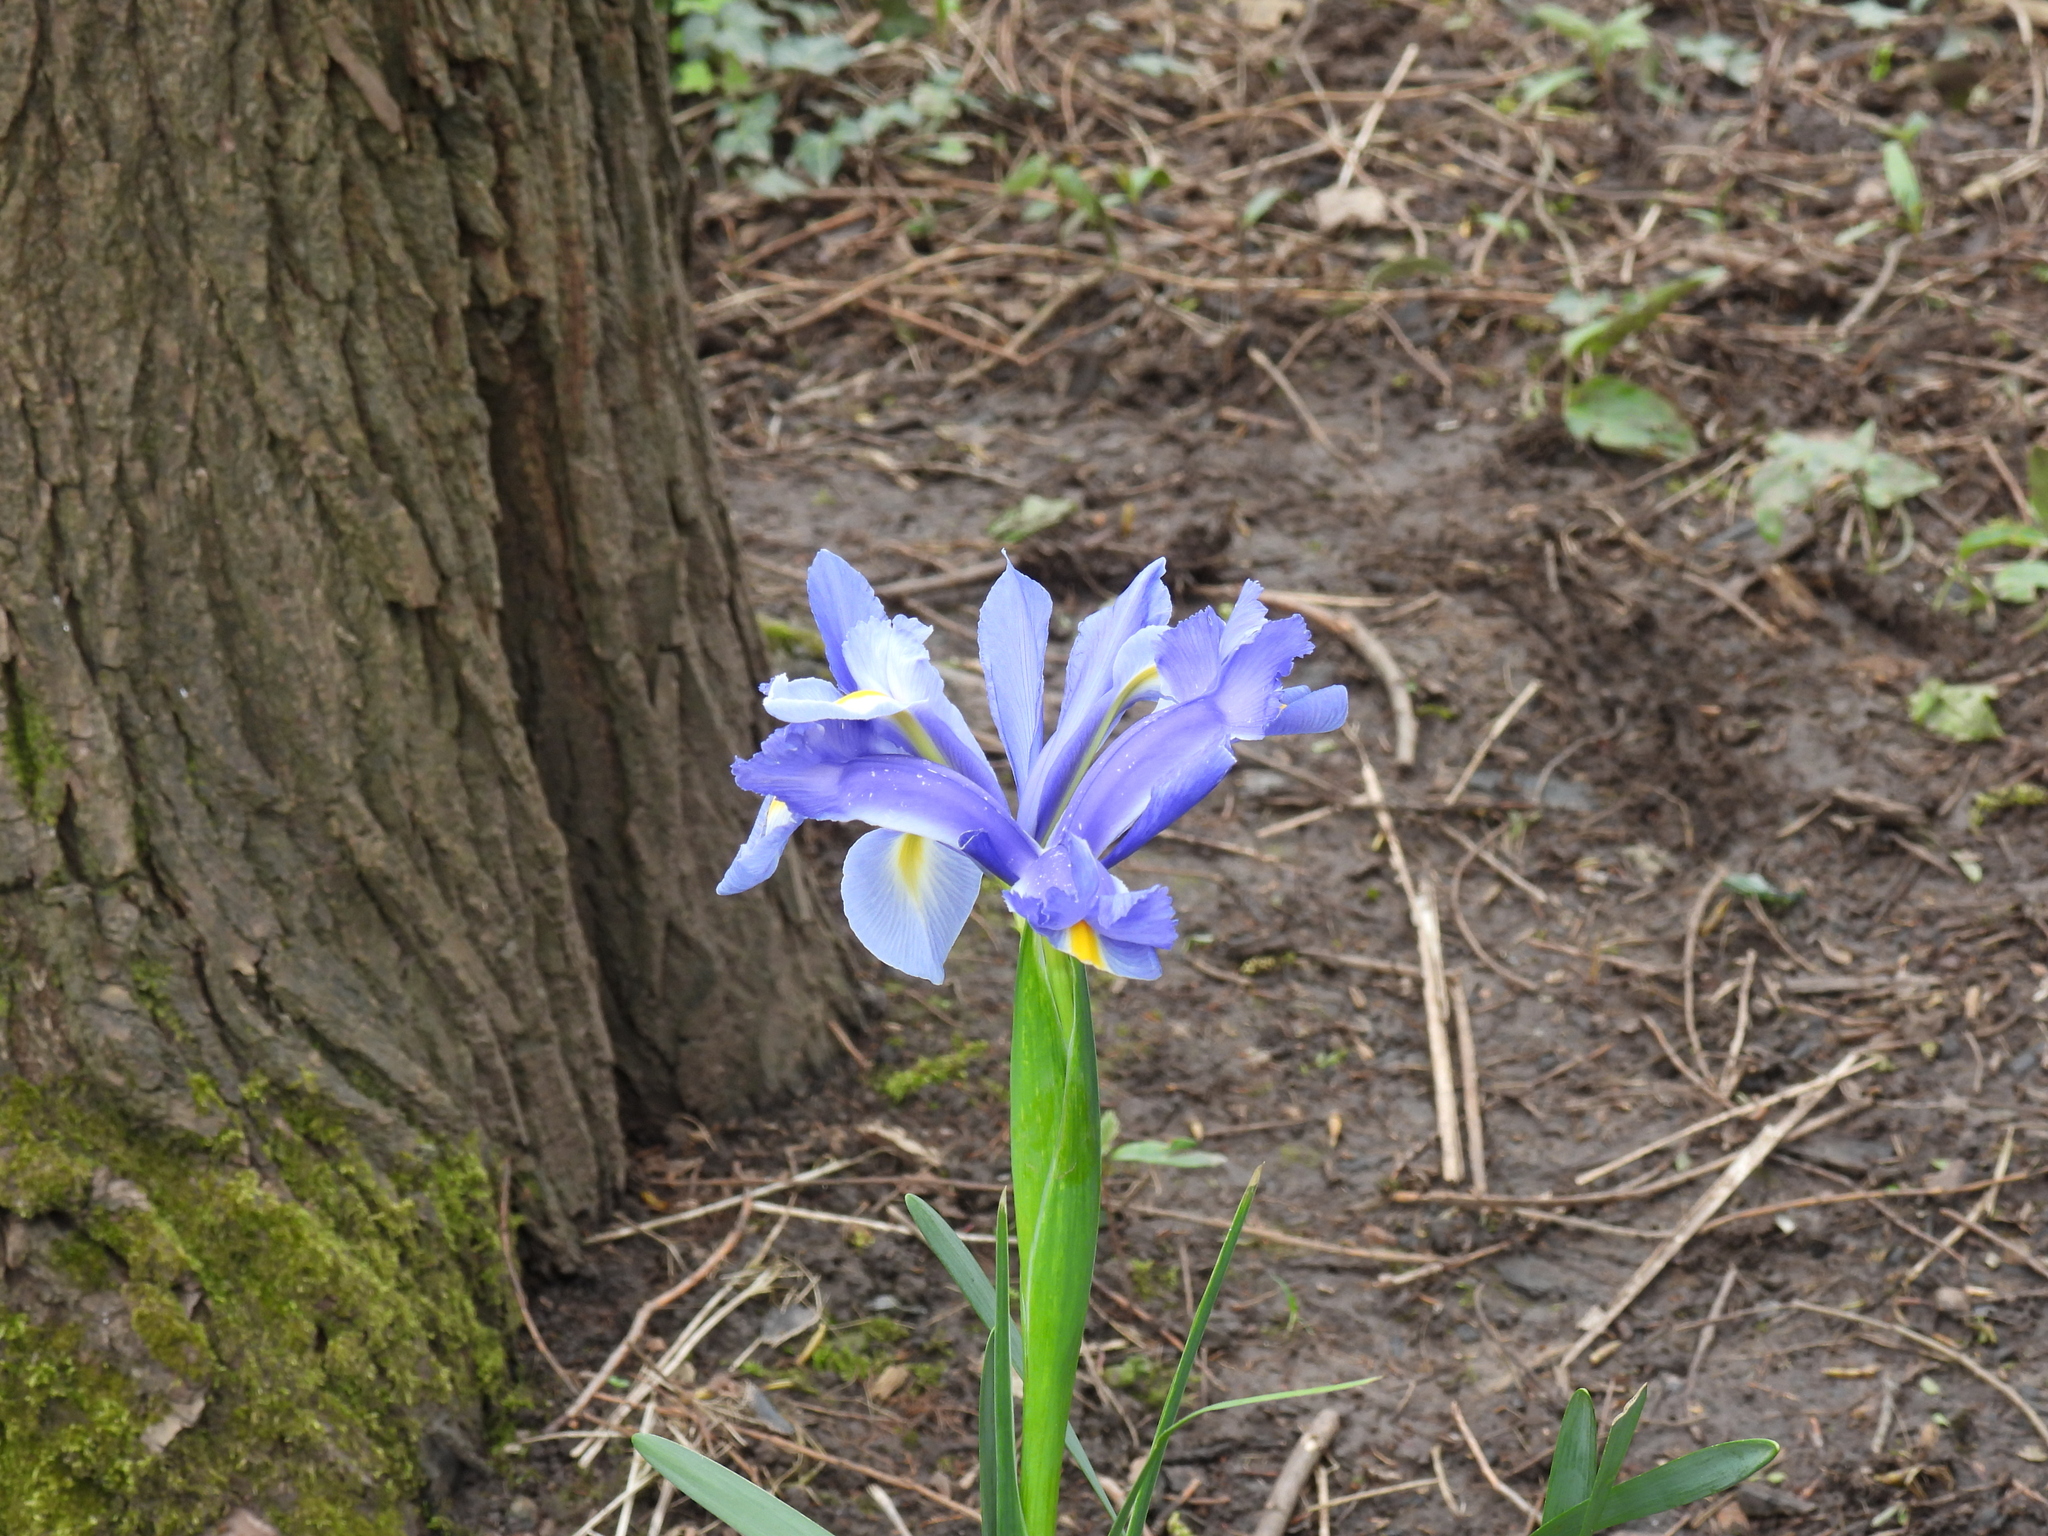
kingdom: Plantae
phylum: Tracheophyta
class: Liliopsida
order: Asparagales
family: Iridaceae
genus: Iris
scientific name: Iris hollandica
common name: Dutch iris
